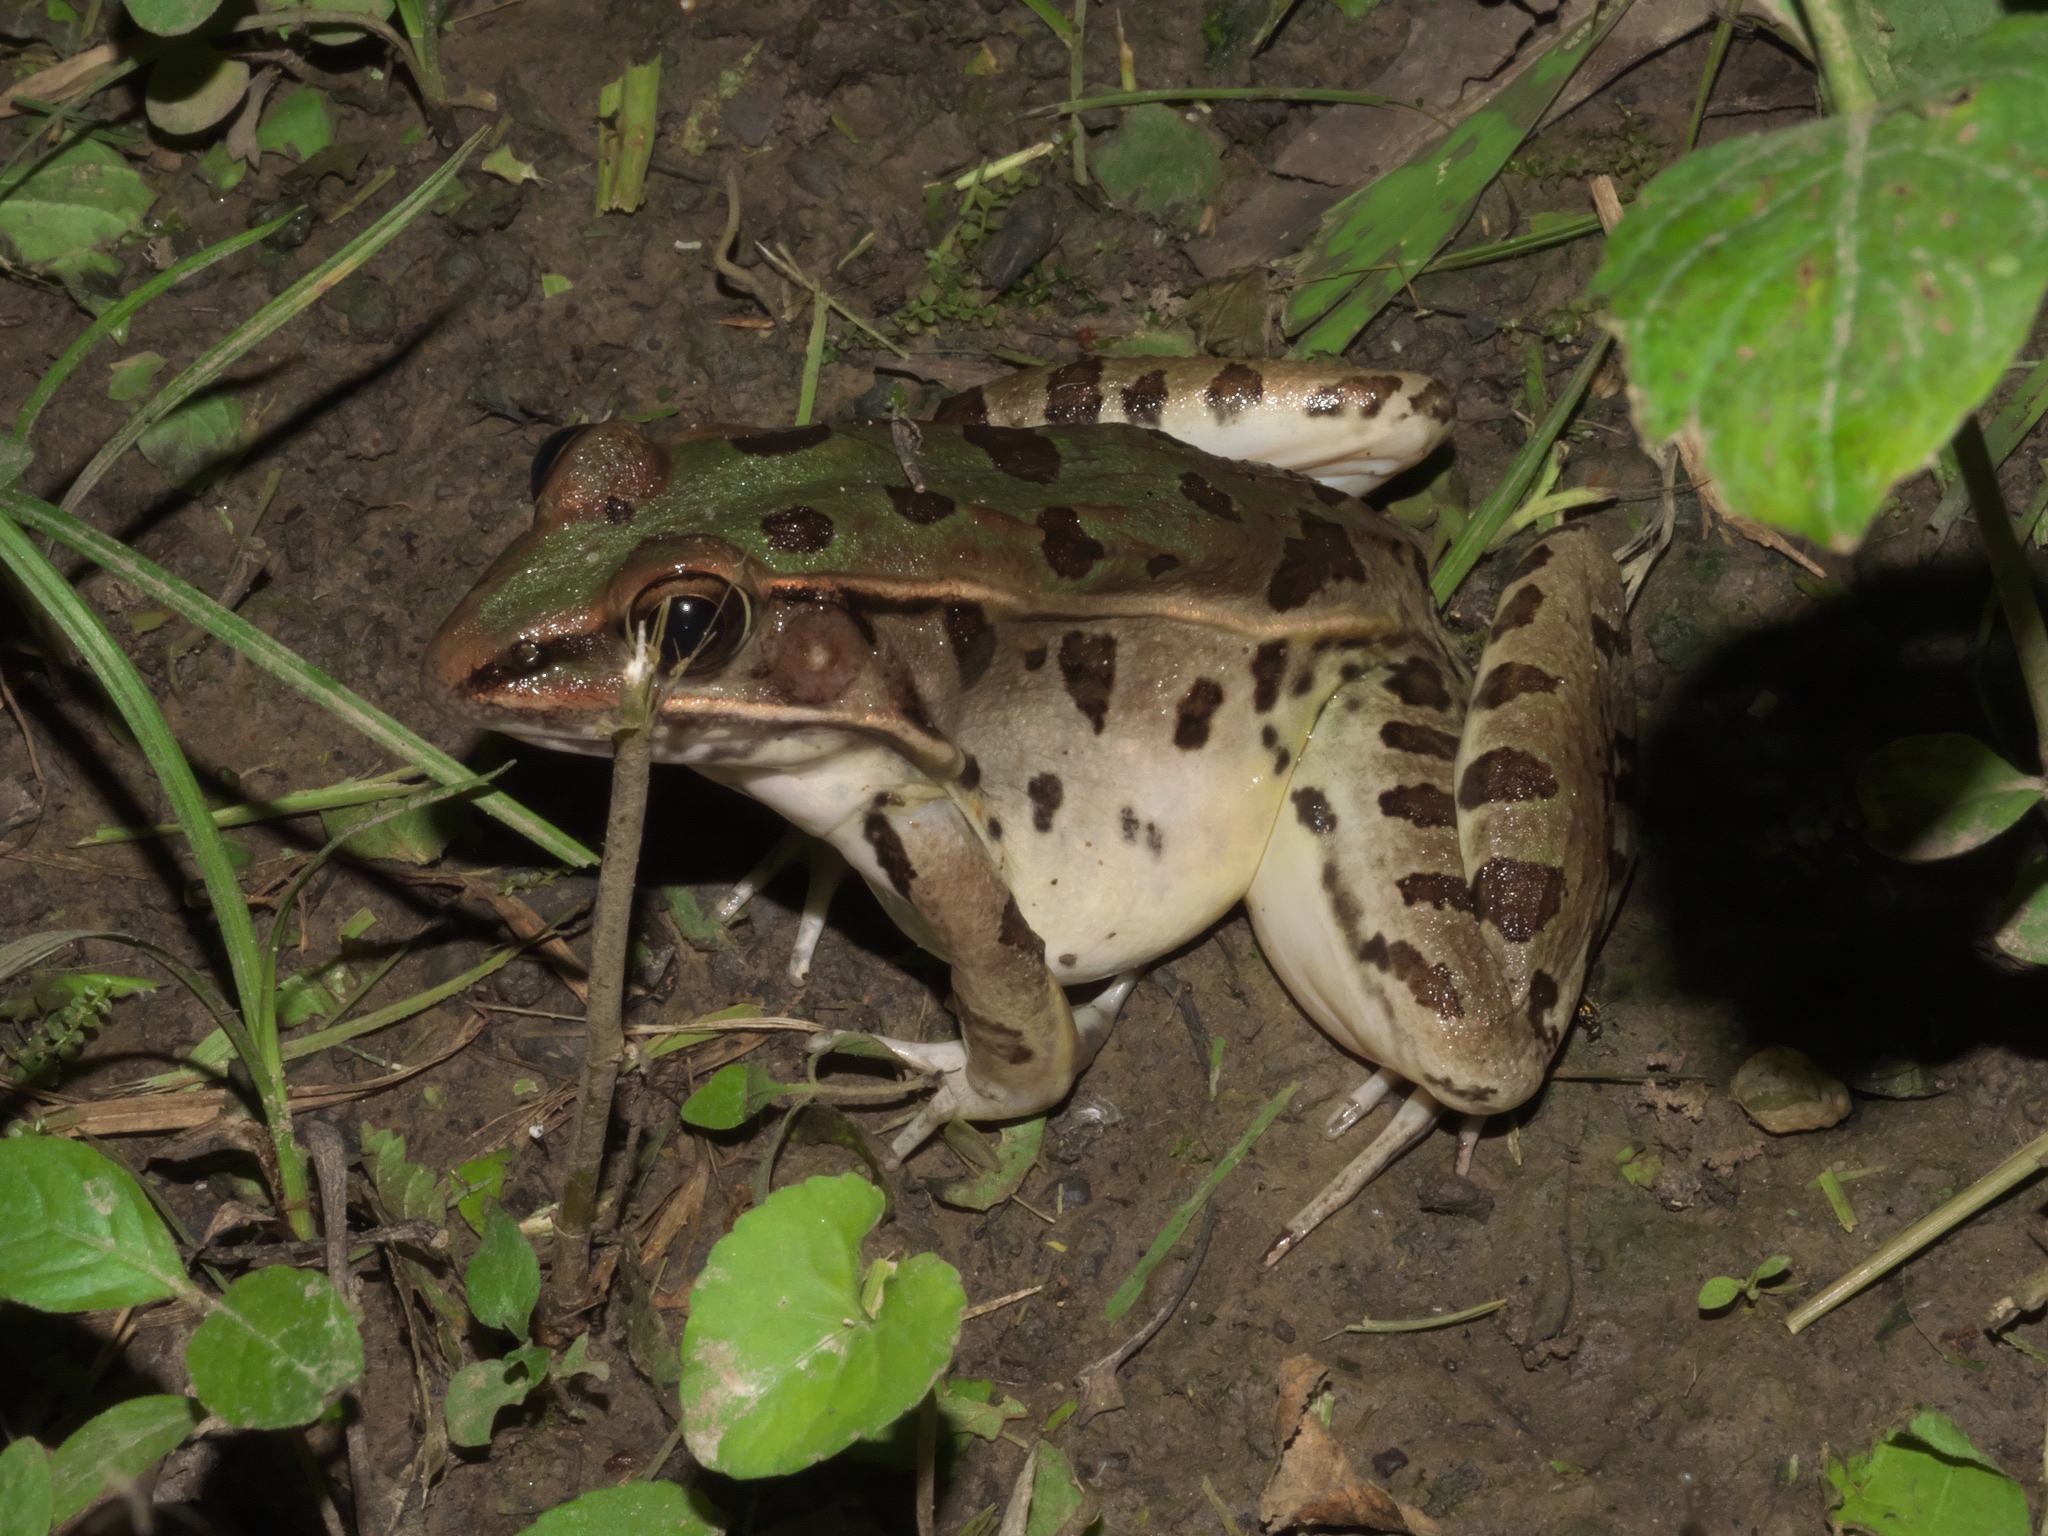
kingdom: Animalia
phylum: Chordata
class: Amphibia
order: Anura
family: Ranidae
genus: Lithobates
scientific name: Lithobates sphenocephalus
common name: Southern leopard frog
